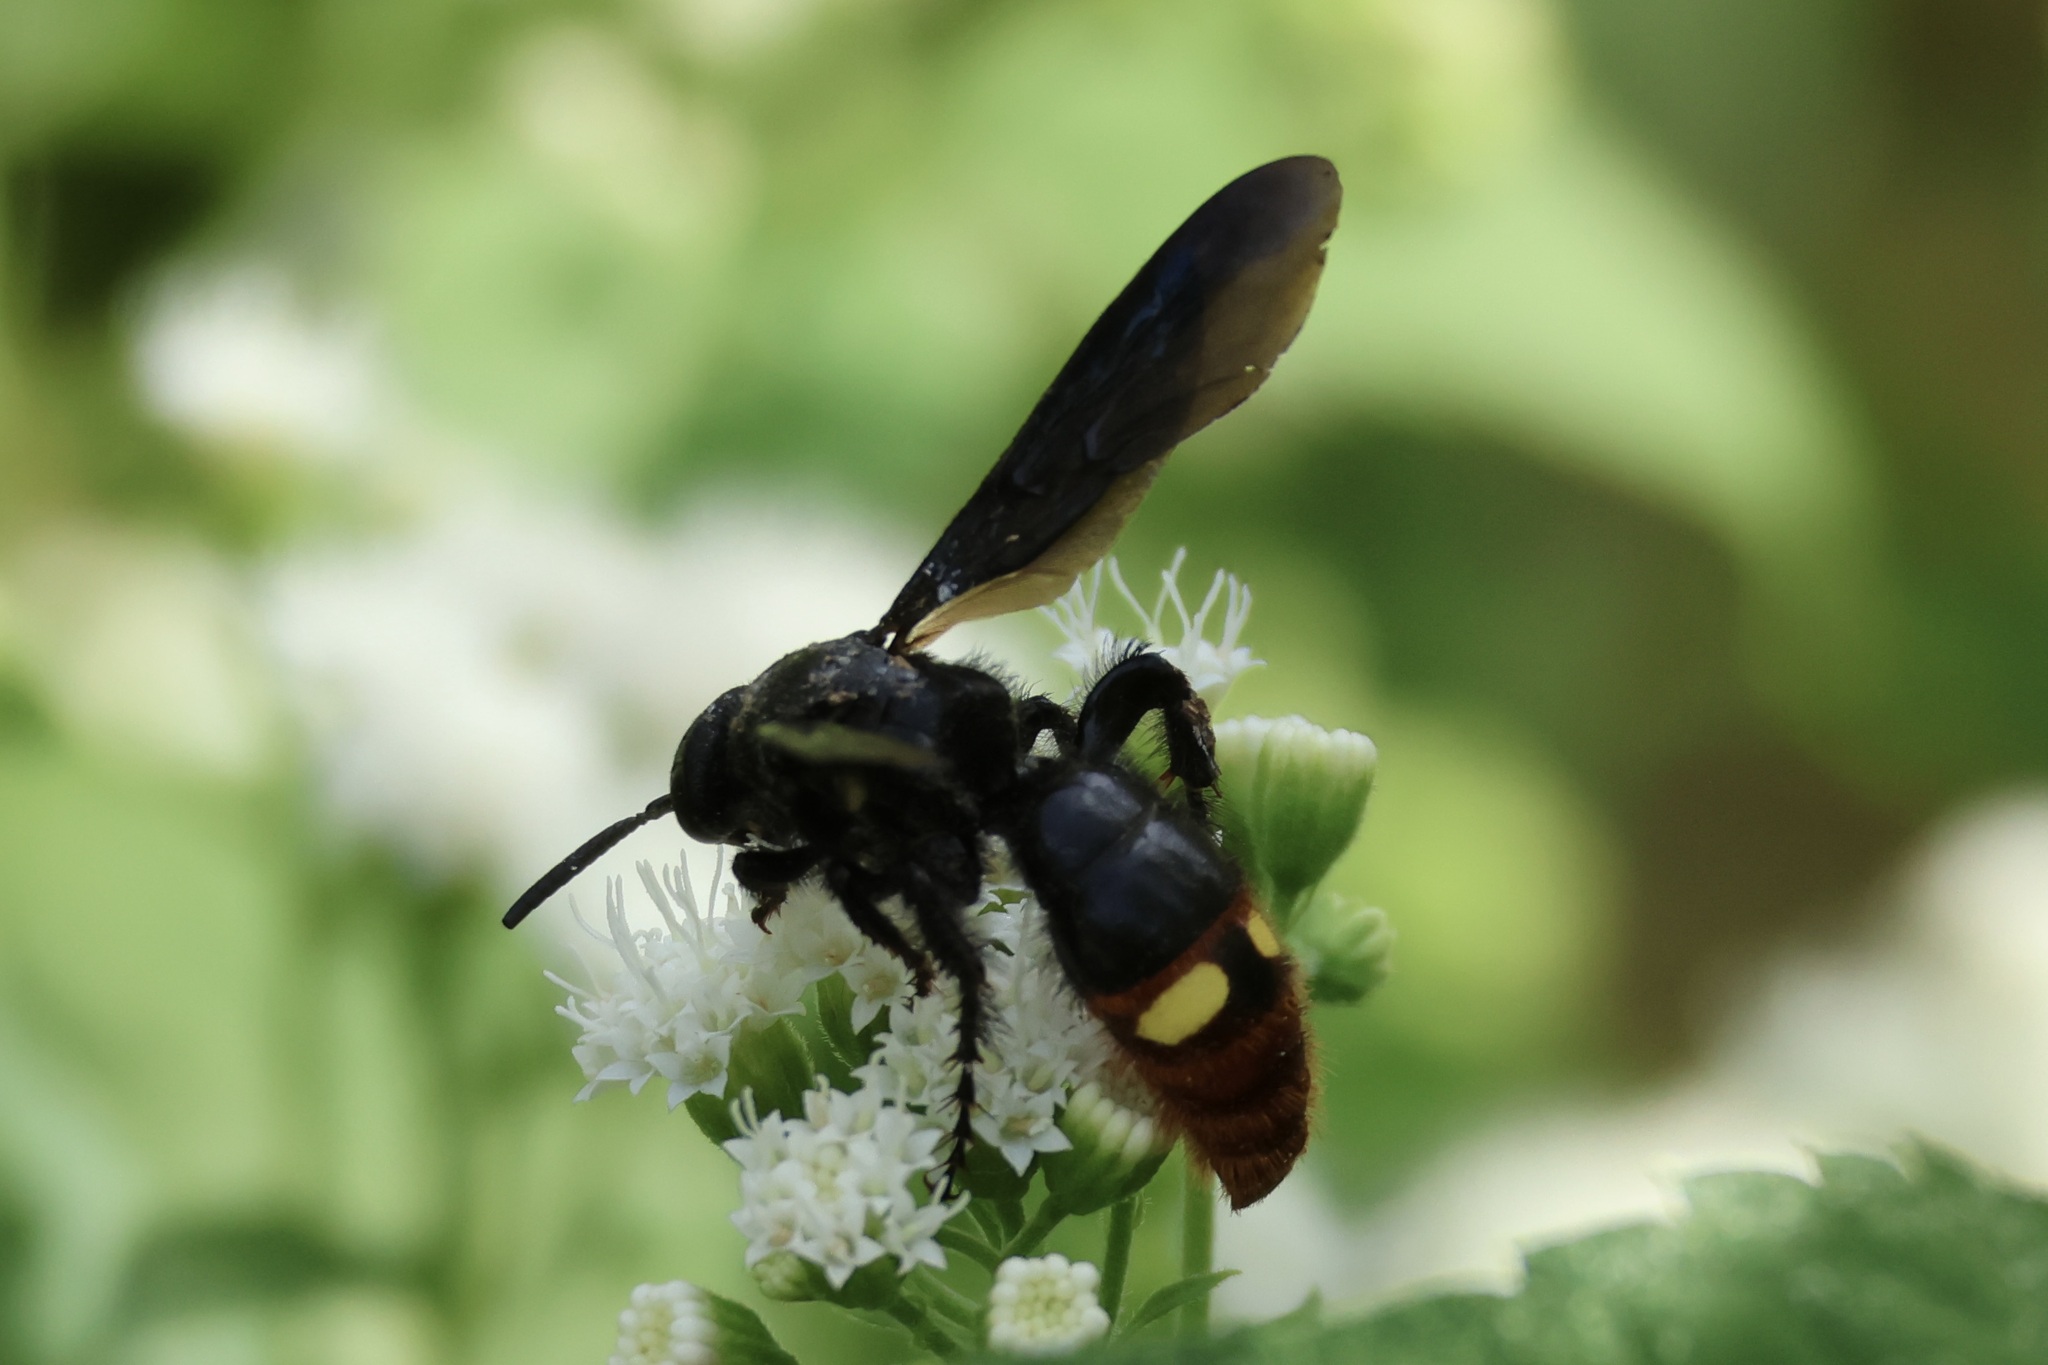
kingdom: Animalia
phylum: Arthropoda
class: Insecta
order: Hymenoptera
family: Scoliidae
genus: Scolia
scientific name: Scolia dubia
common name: Blue-winged scoliid wasp
